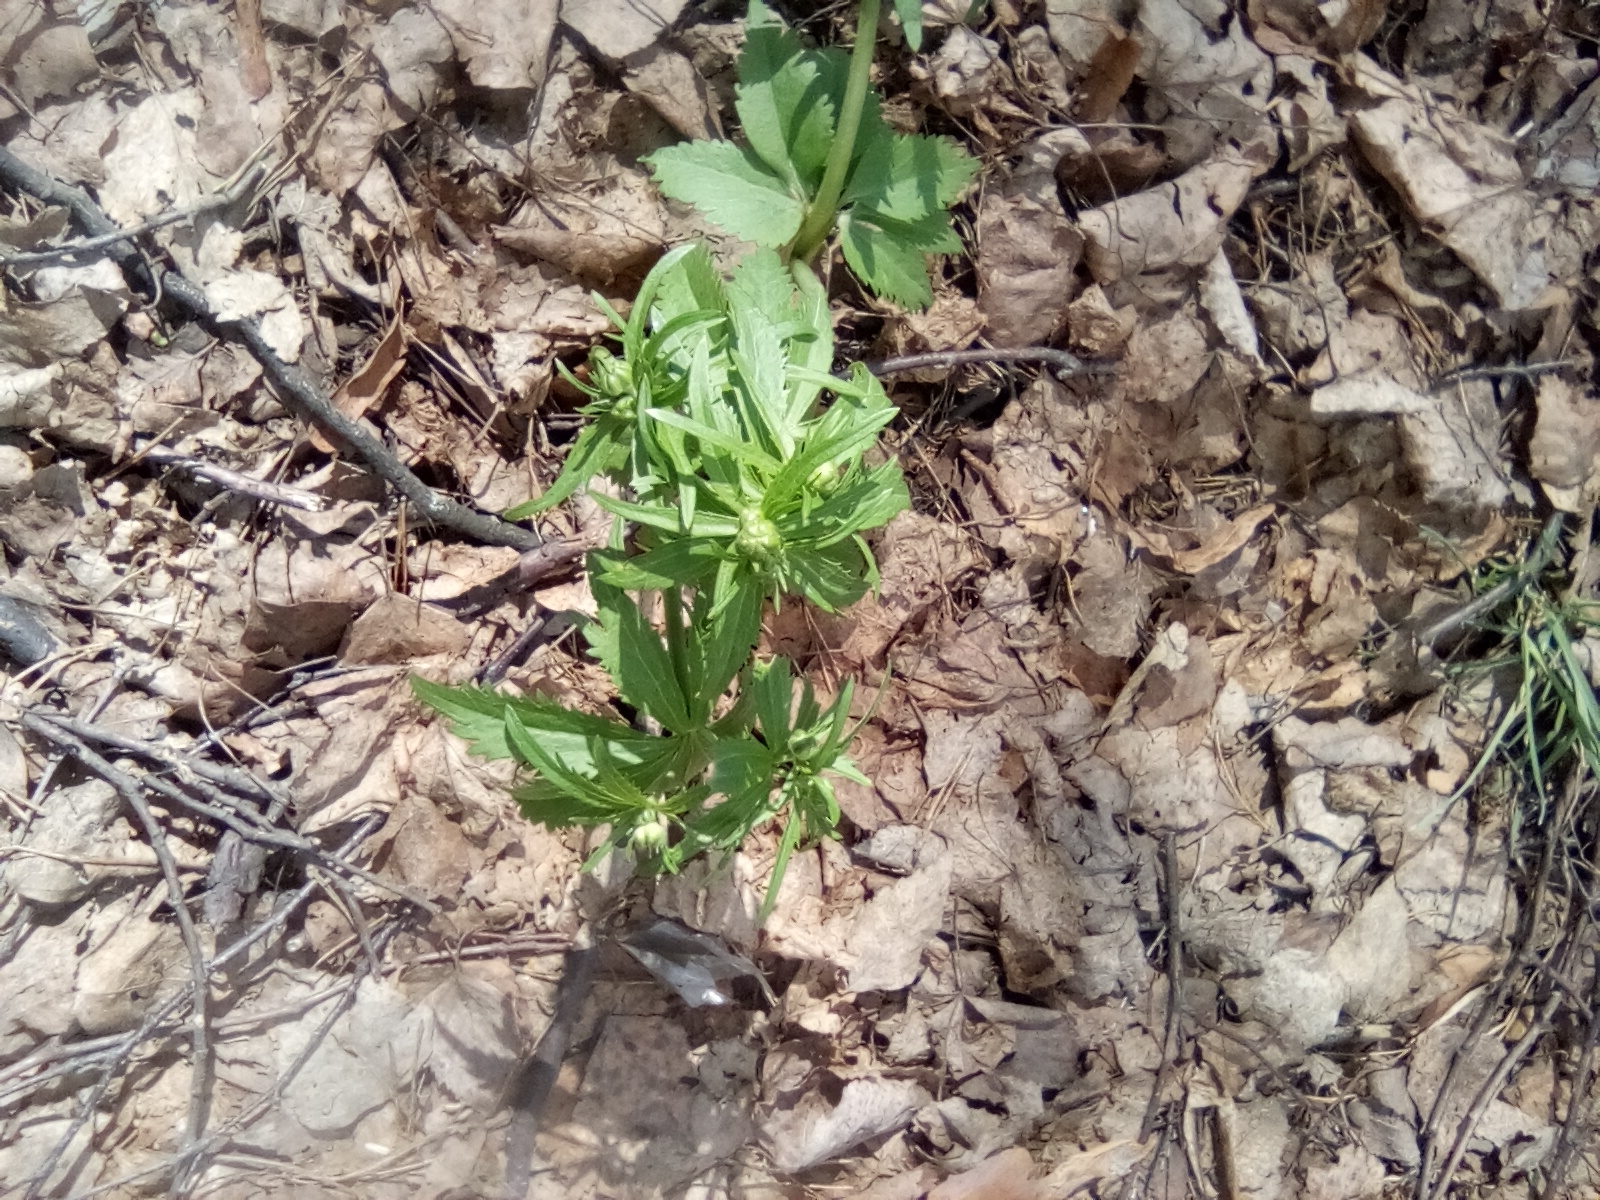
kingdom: Plantae
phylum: Tracheophyta
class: Magnoliopsida
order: Ranunculales
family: Ranunculaceae
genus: Ranunculus
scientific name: Ranunculus cassubicus
